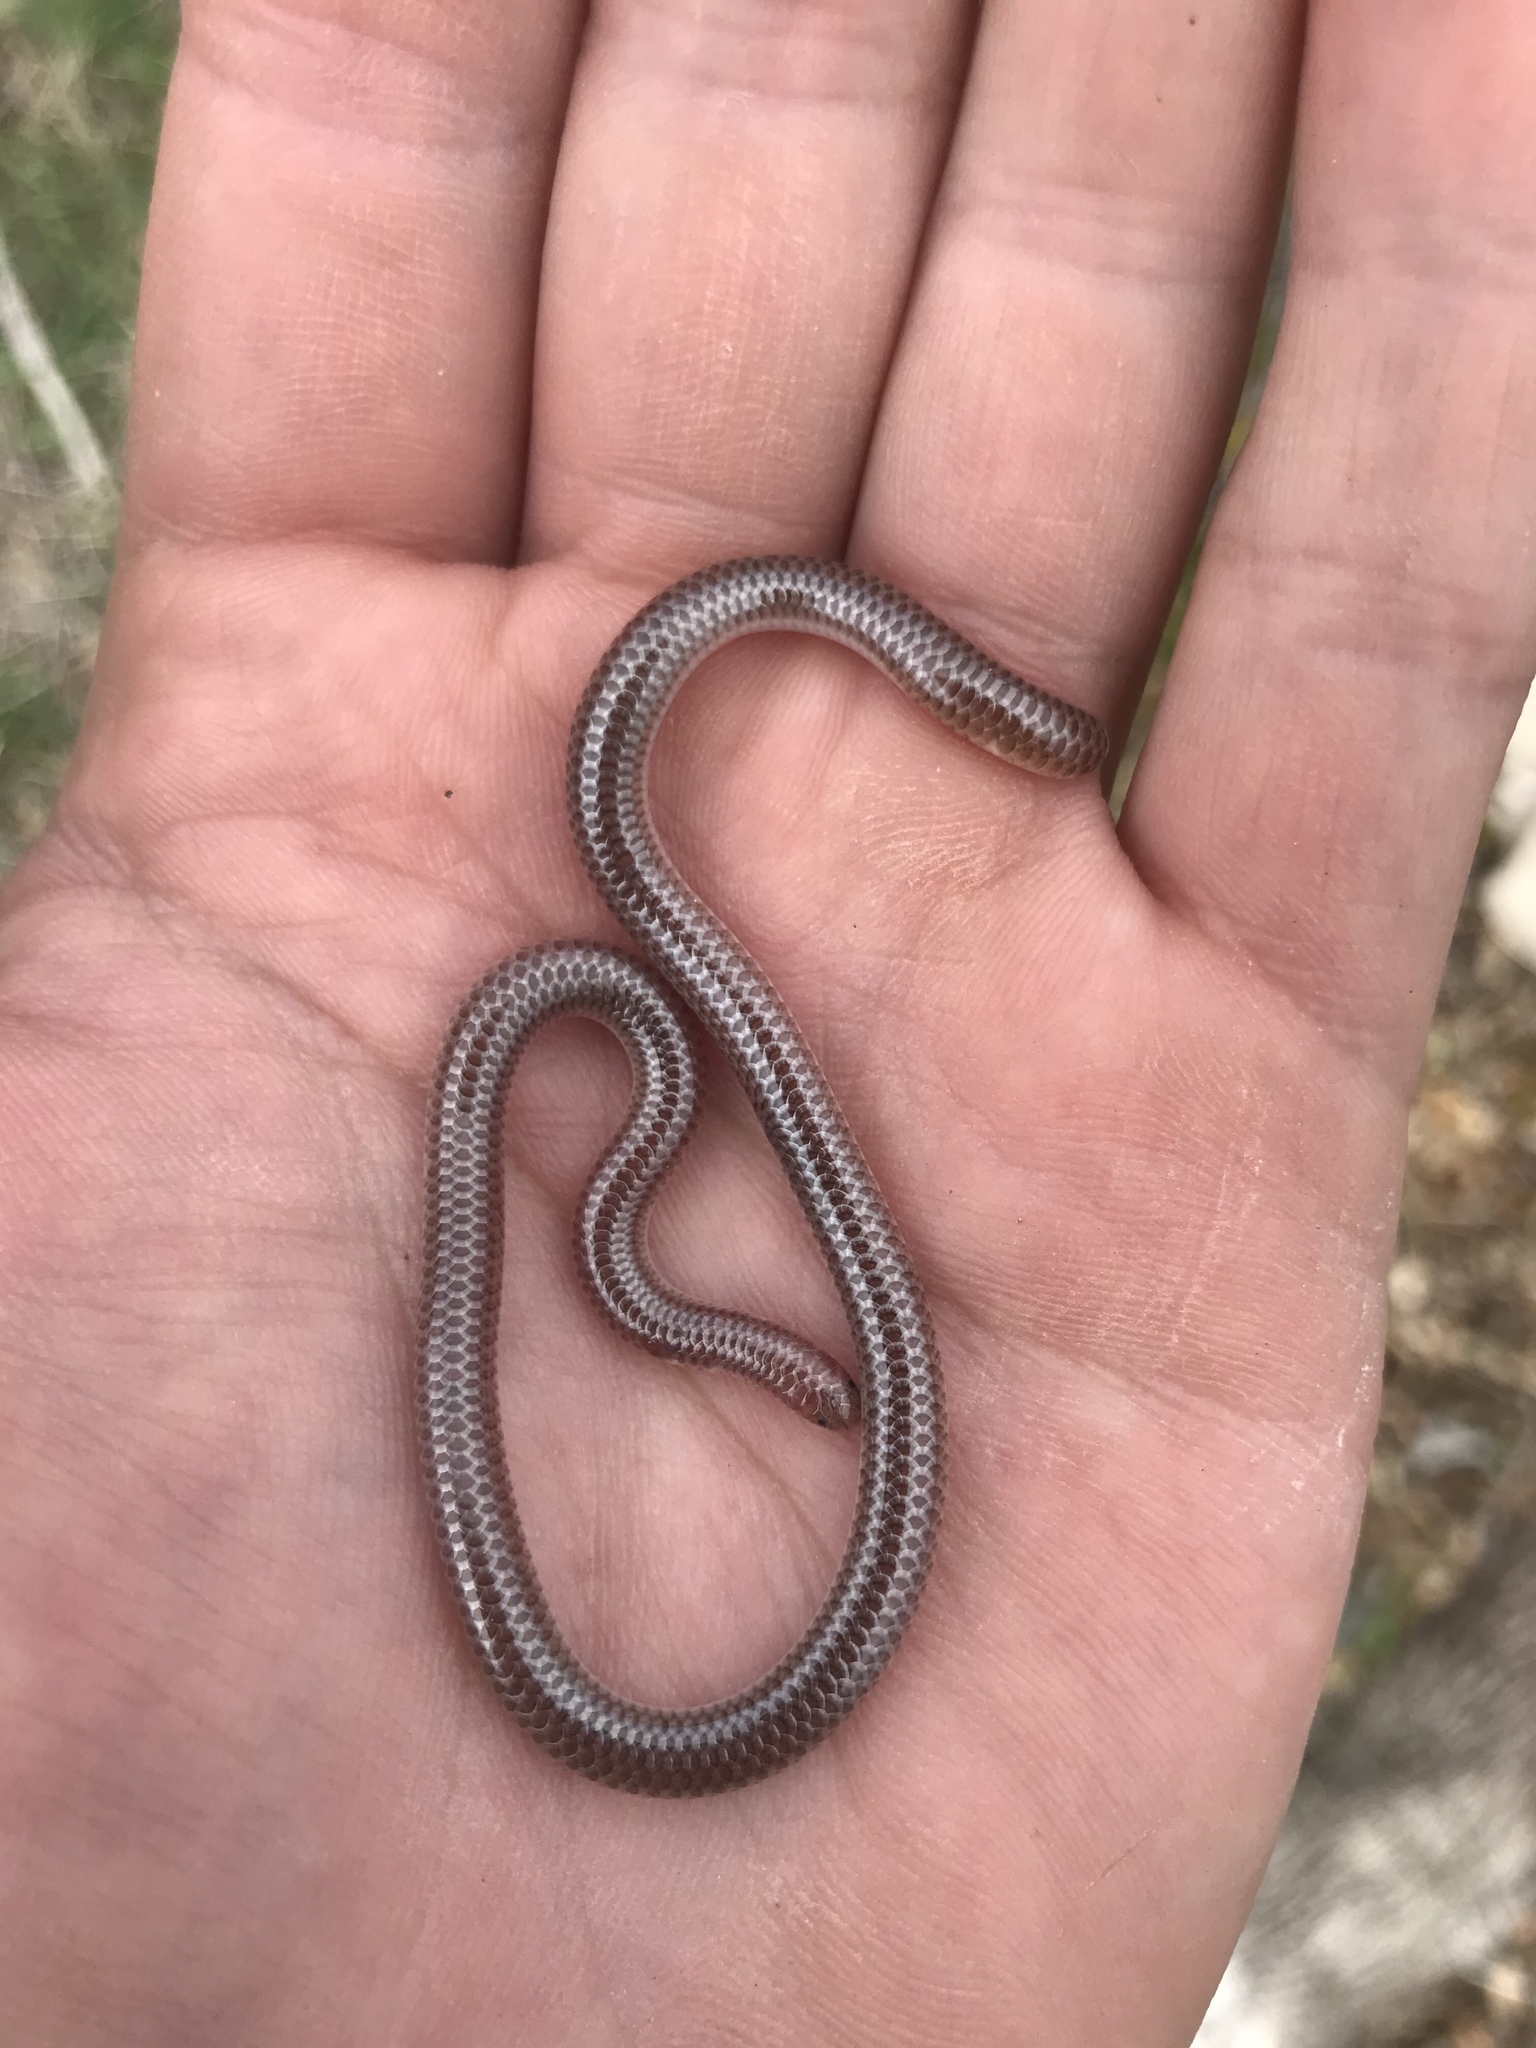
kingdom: Animalia
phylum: Chordata
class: Squamata
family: Leptotyphlopidae
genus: Rena
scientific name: Rena dulcis
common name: Texas blind snake
